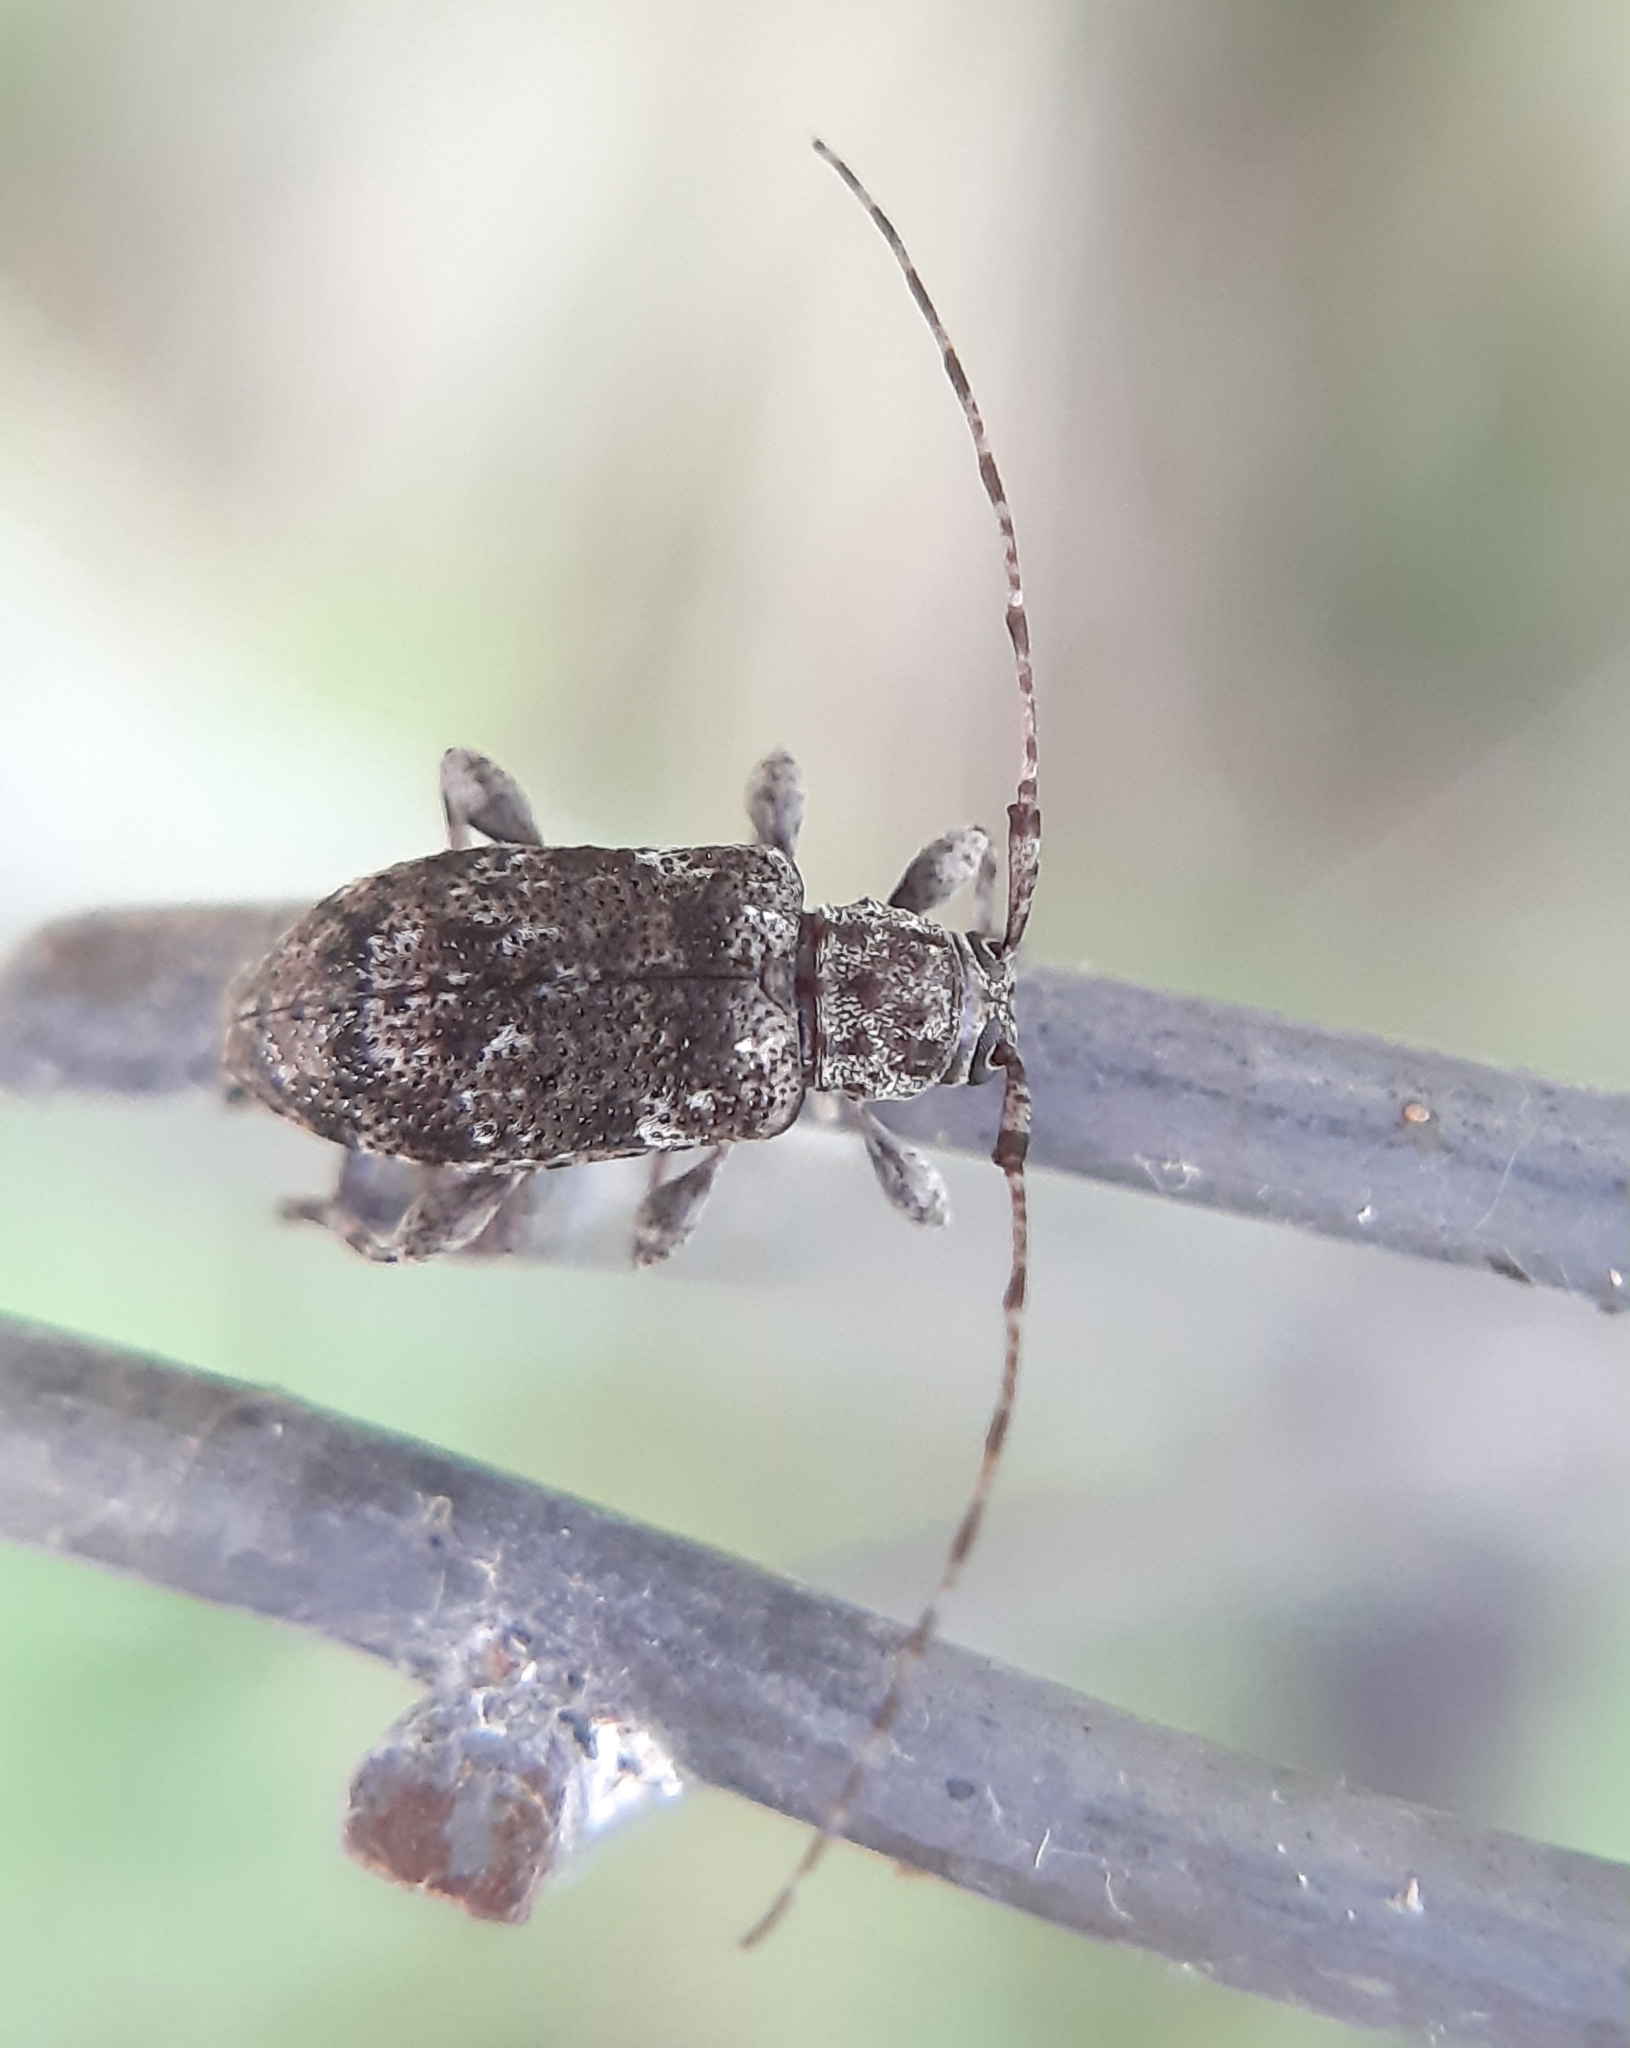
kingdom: Animalia
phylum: Arthropoda
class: Insecta
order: Coleoptera
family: Cerambycidae
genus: Astylopsis
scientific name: Astylopsis sexguttata
